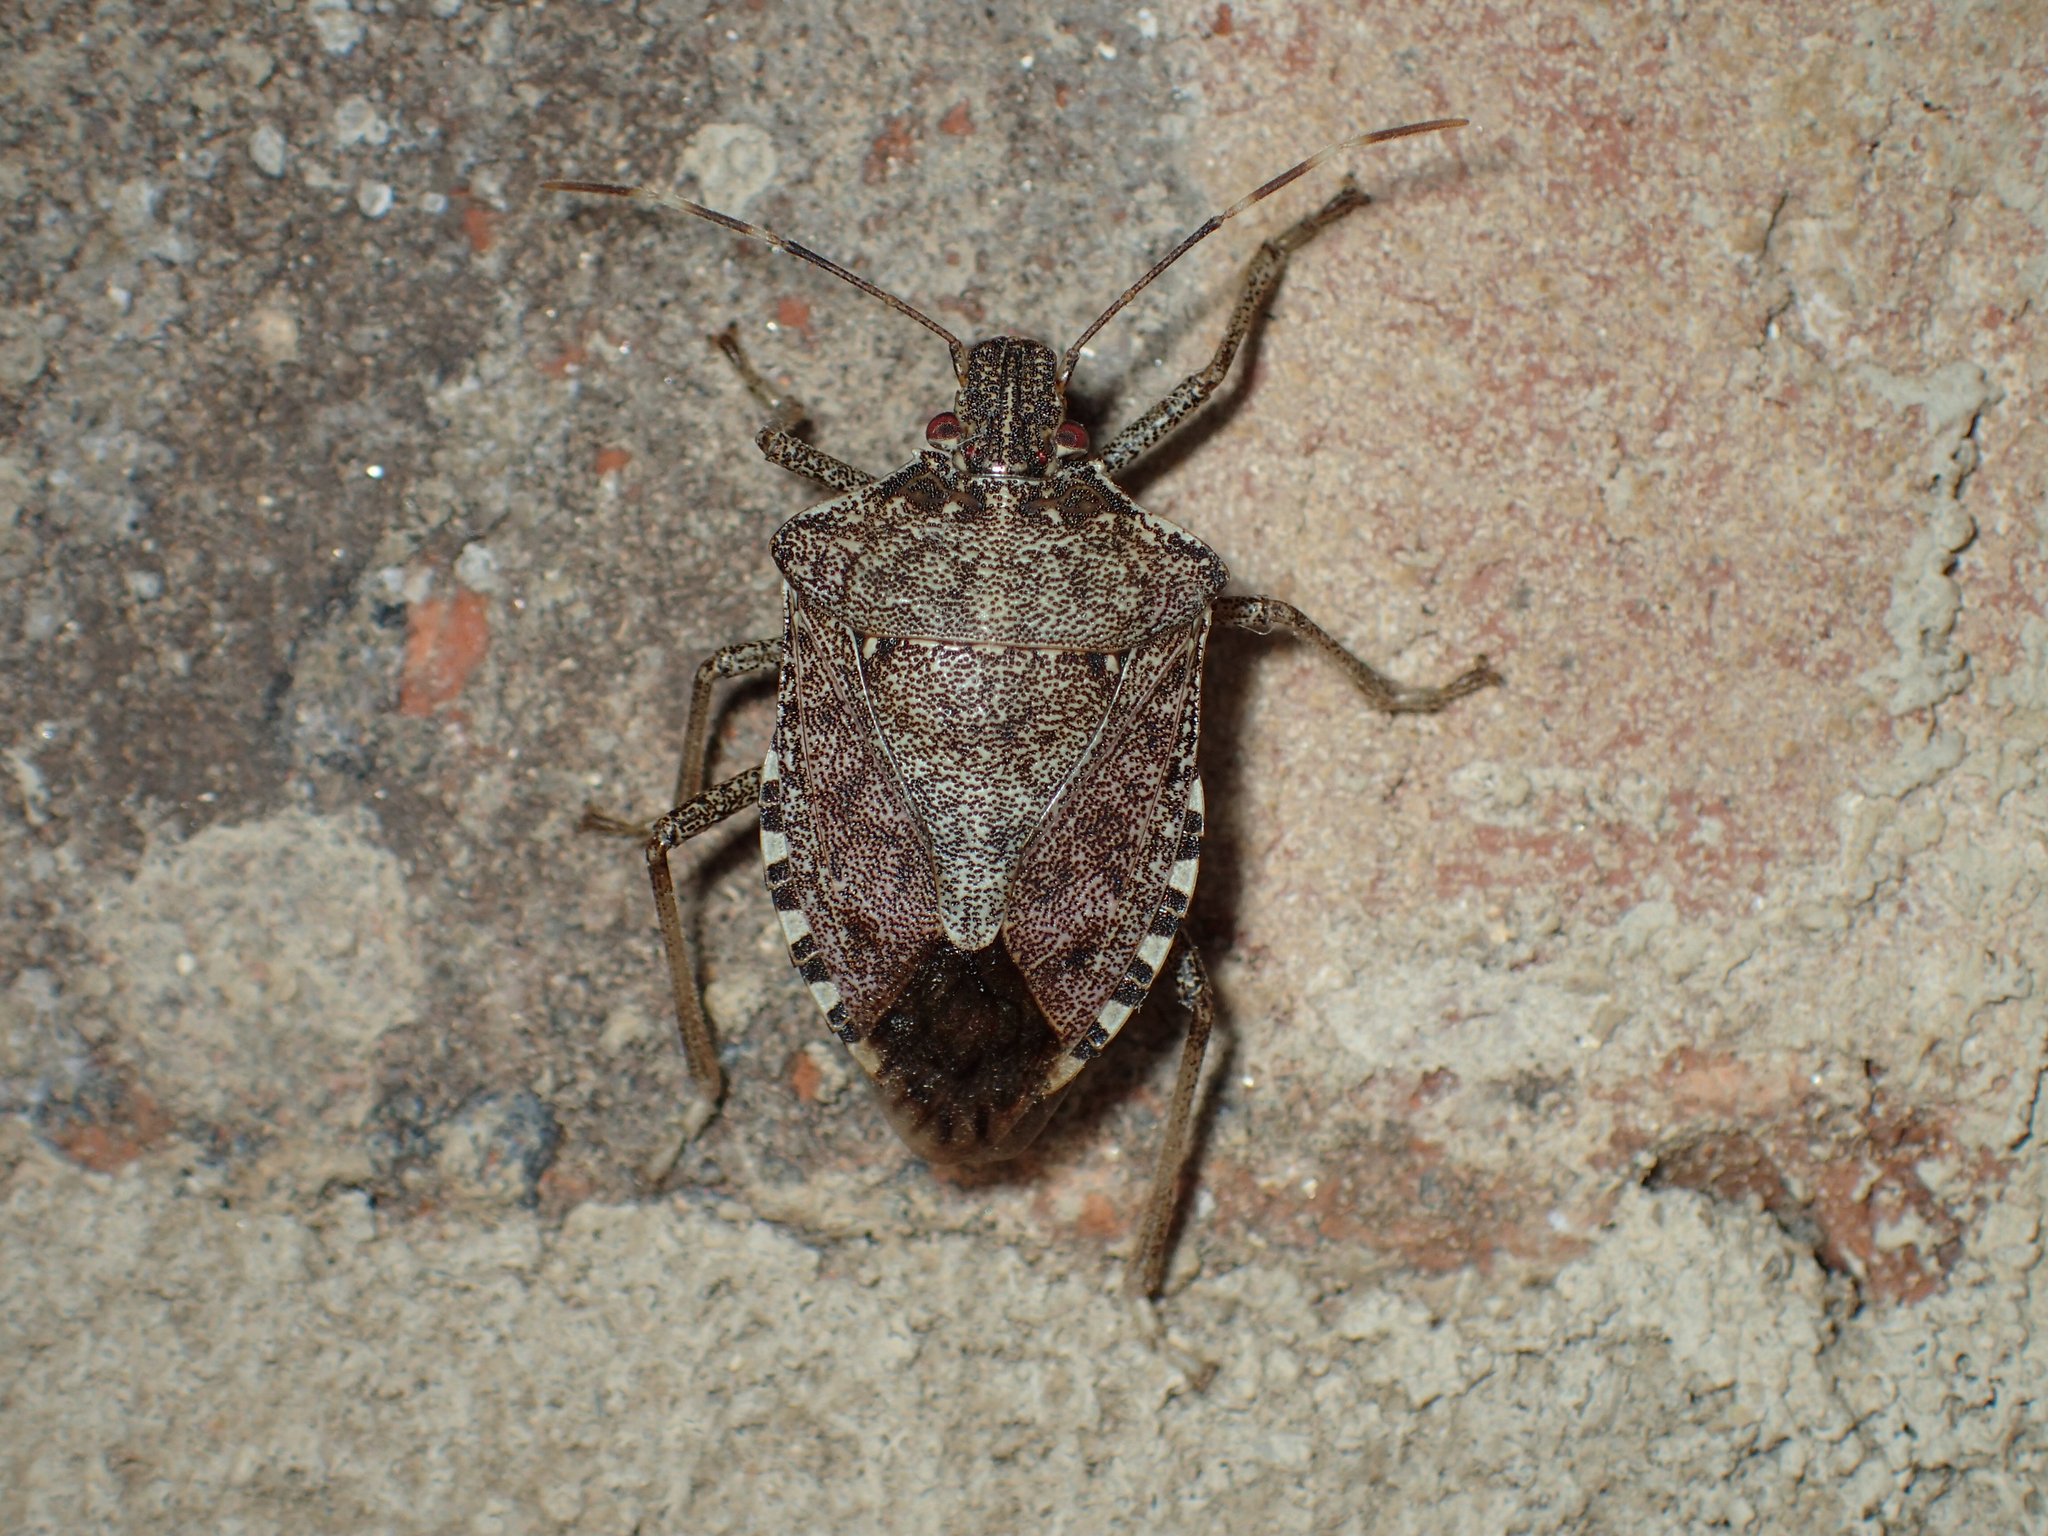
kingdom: Animalia
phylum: Arthropoda
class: Insecta
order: Hemiptera
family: Pentatomidae
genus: Halyomorpha
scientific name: Halyomorpha halys
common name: Brown marmorated stink bug
